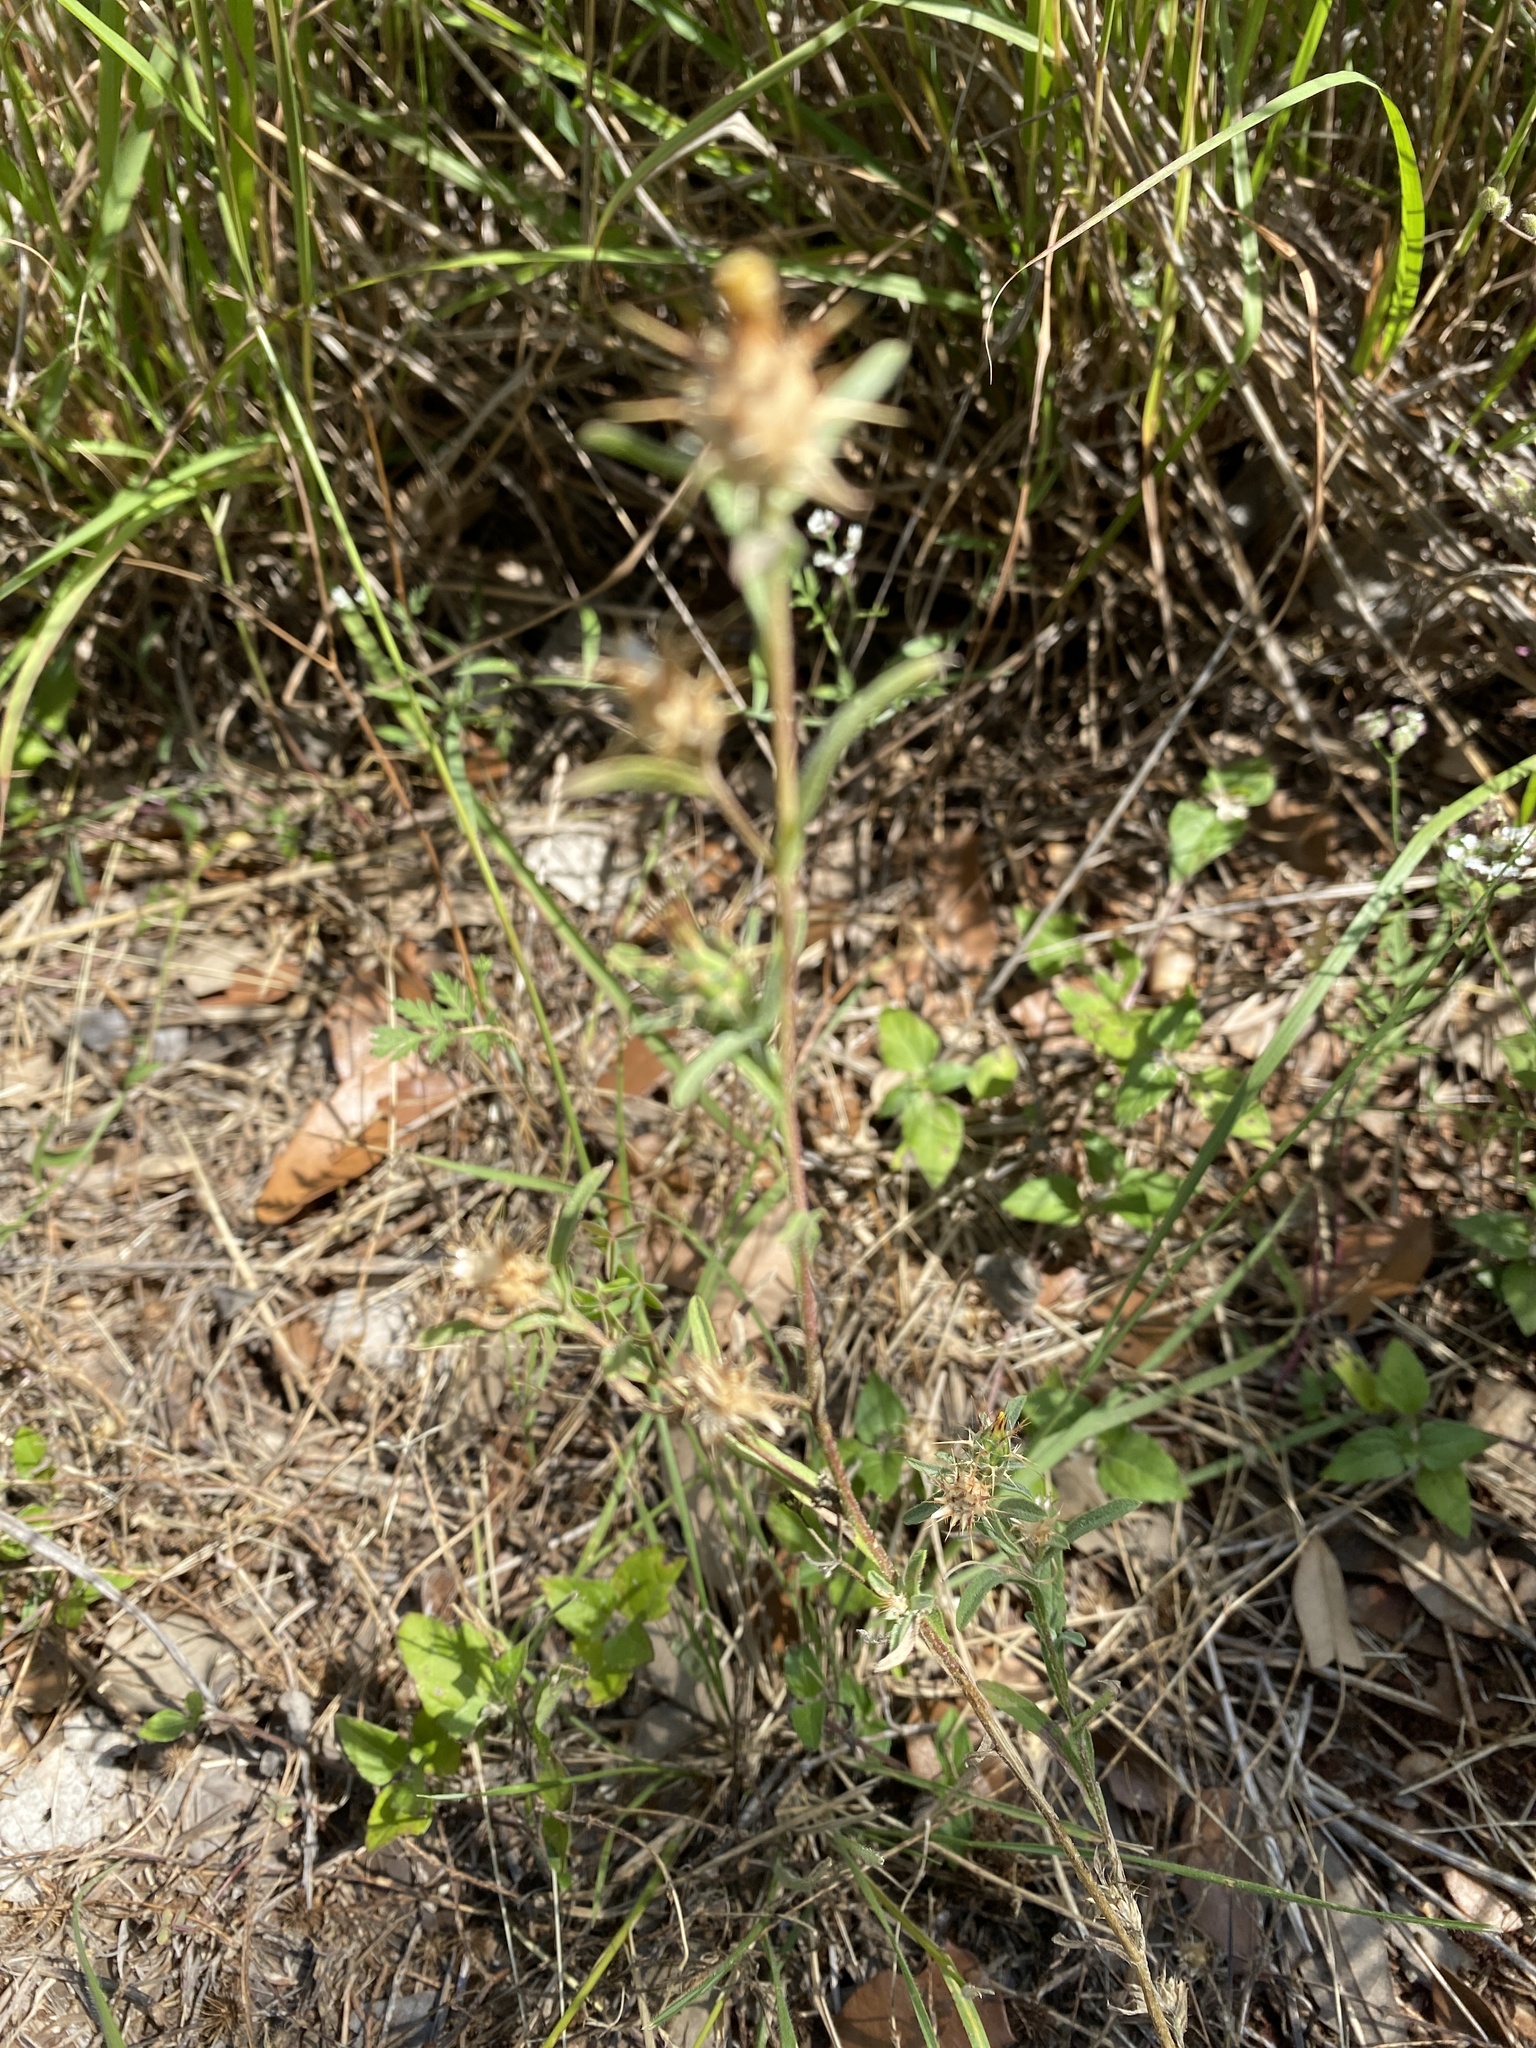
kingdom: Plantae
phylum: Tracheophyta
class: Magnoliopsida
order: Asterales
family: Asteraceae
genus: Centaurea
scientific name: Centaurea melitensis
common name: Maltese star-thistle
